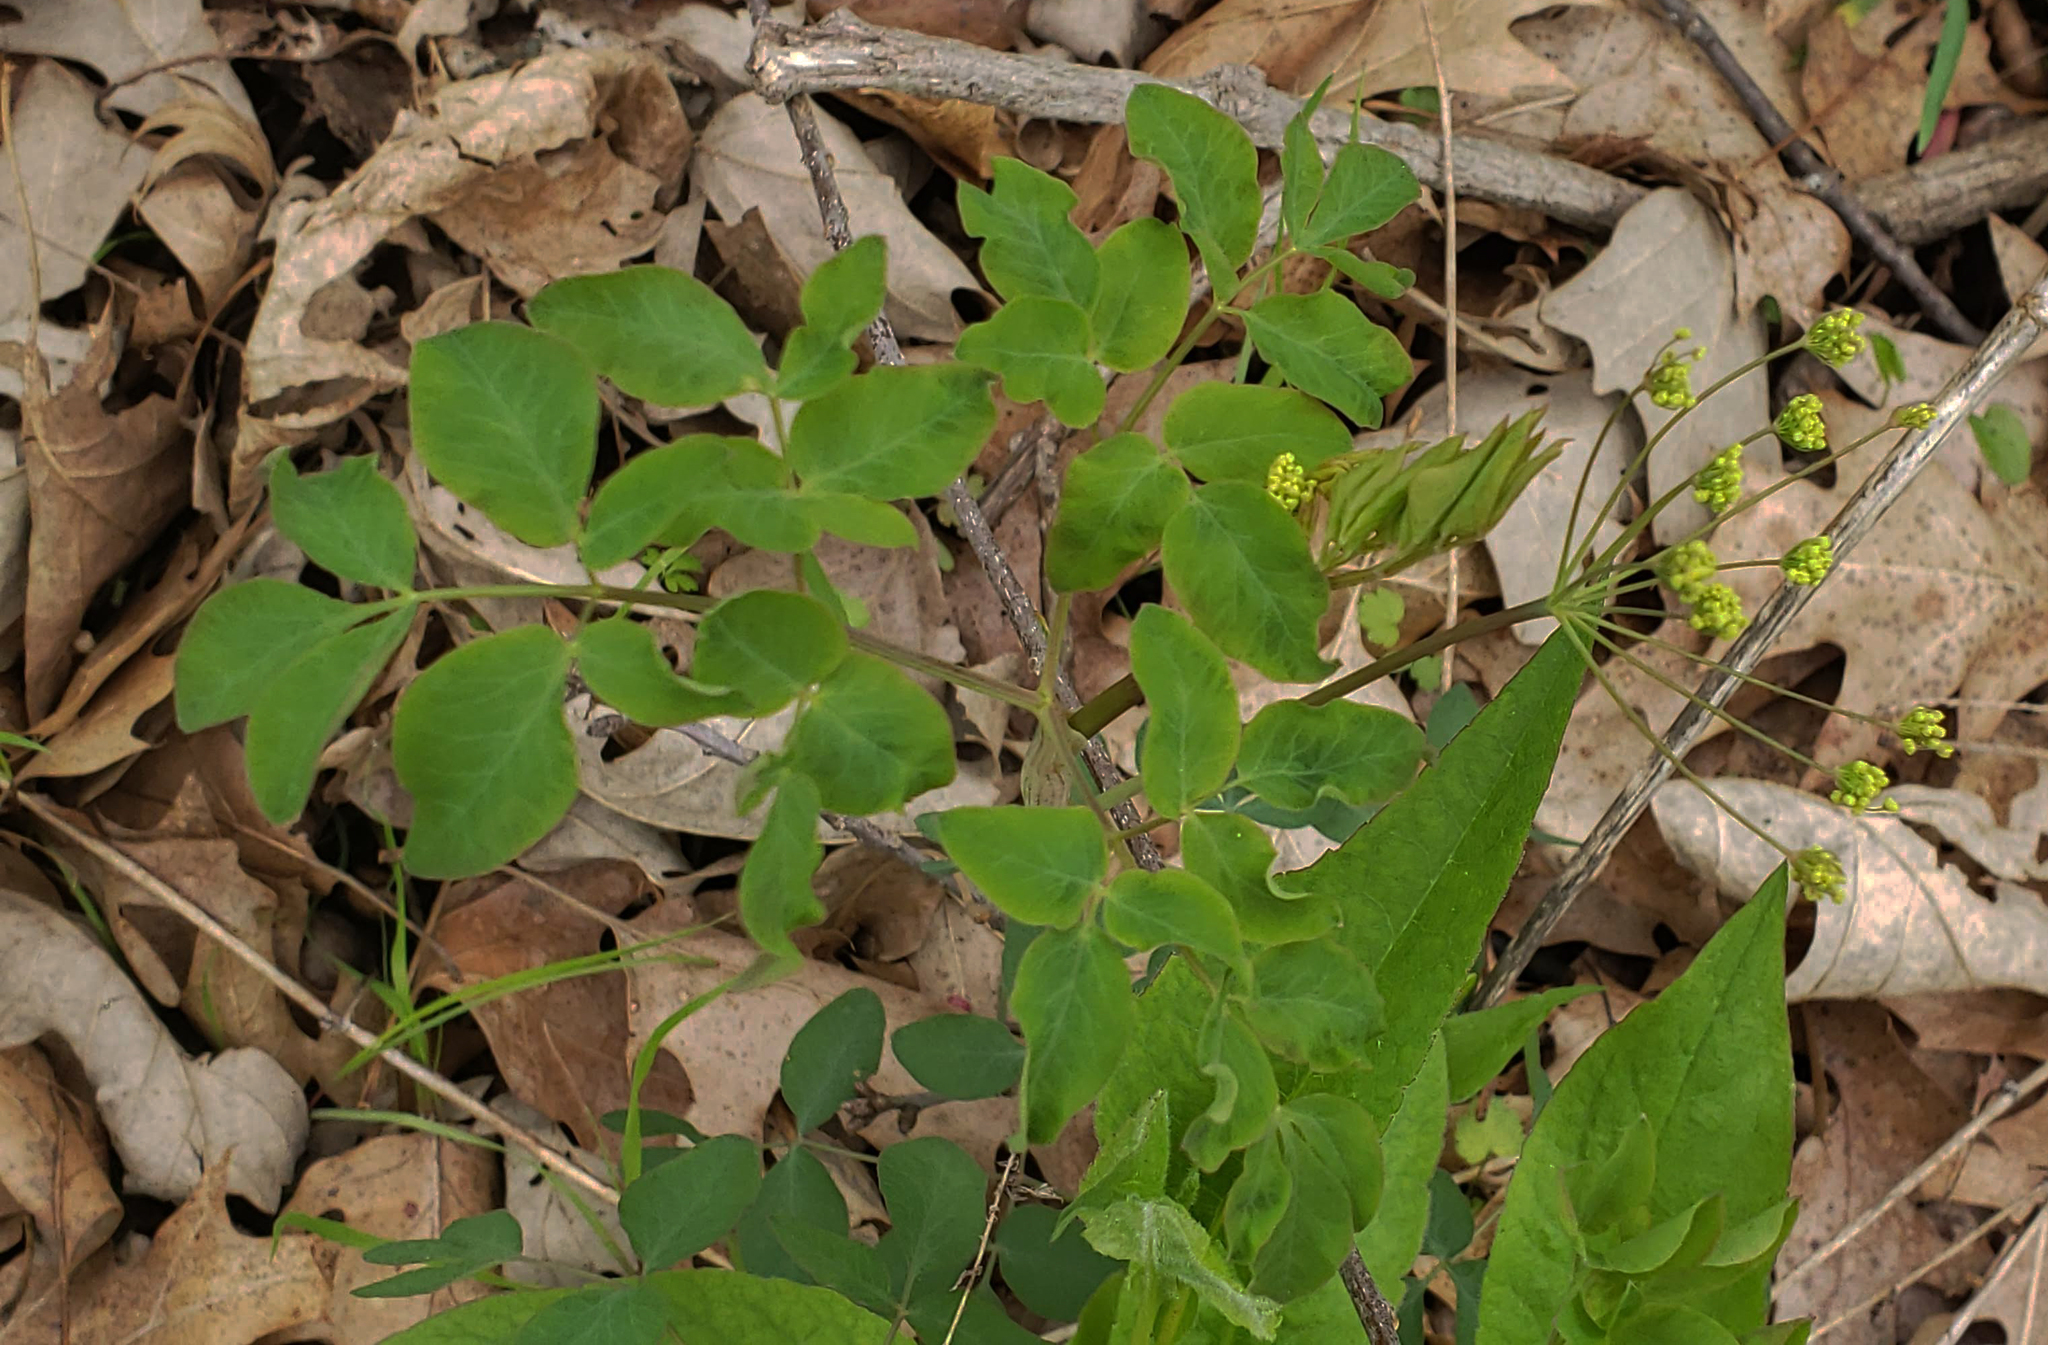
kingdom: Plantae
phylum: Tracheophyta
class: Magnoliopsida
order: Apiales
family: Apiaceae
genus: Taenidia
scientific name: Taenidia integerrima
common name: Golden alexander
